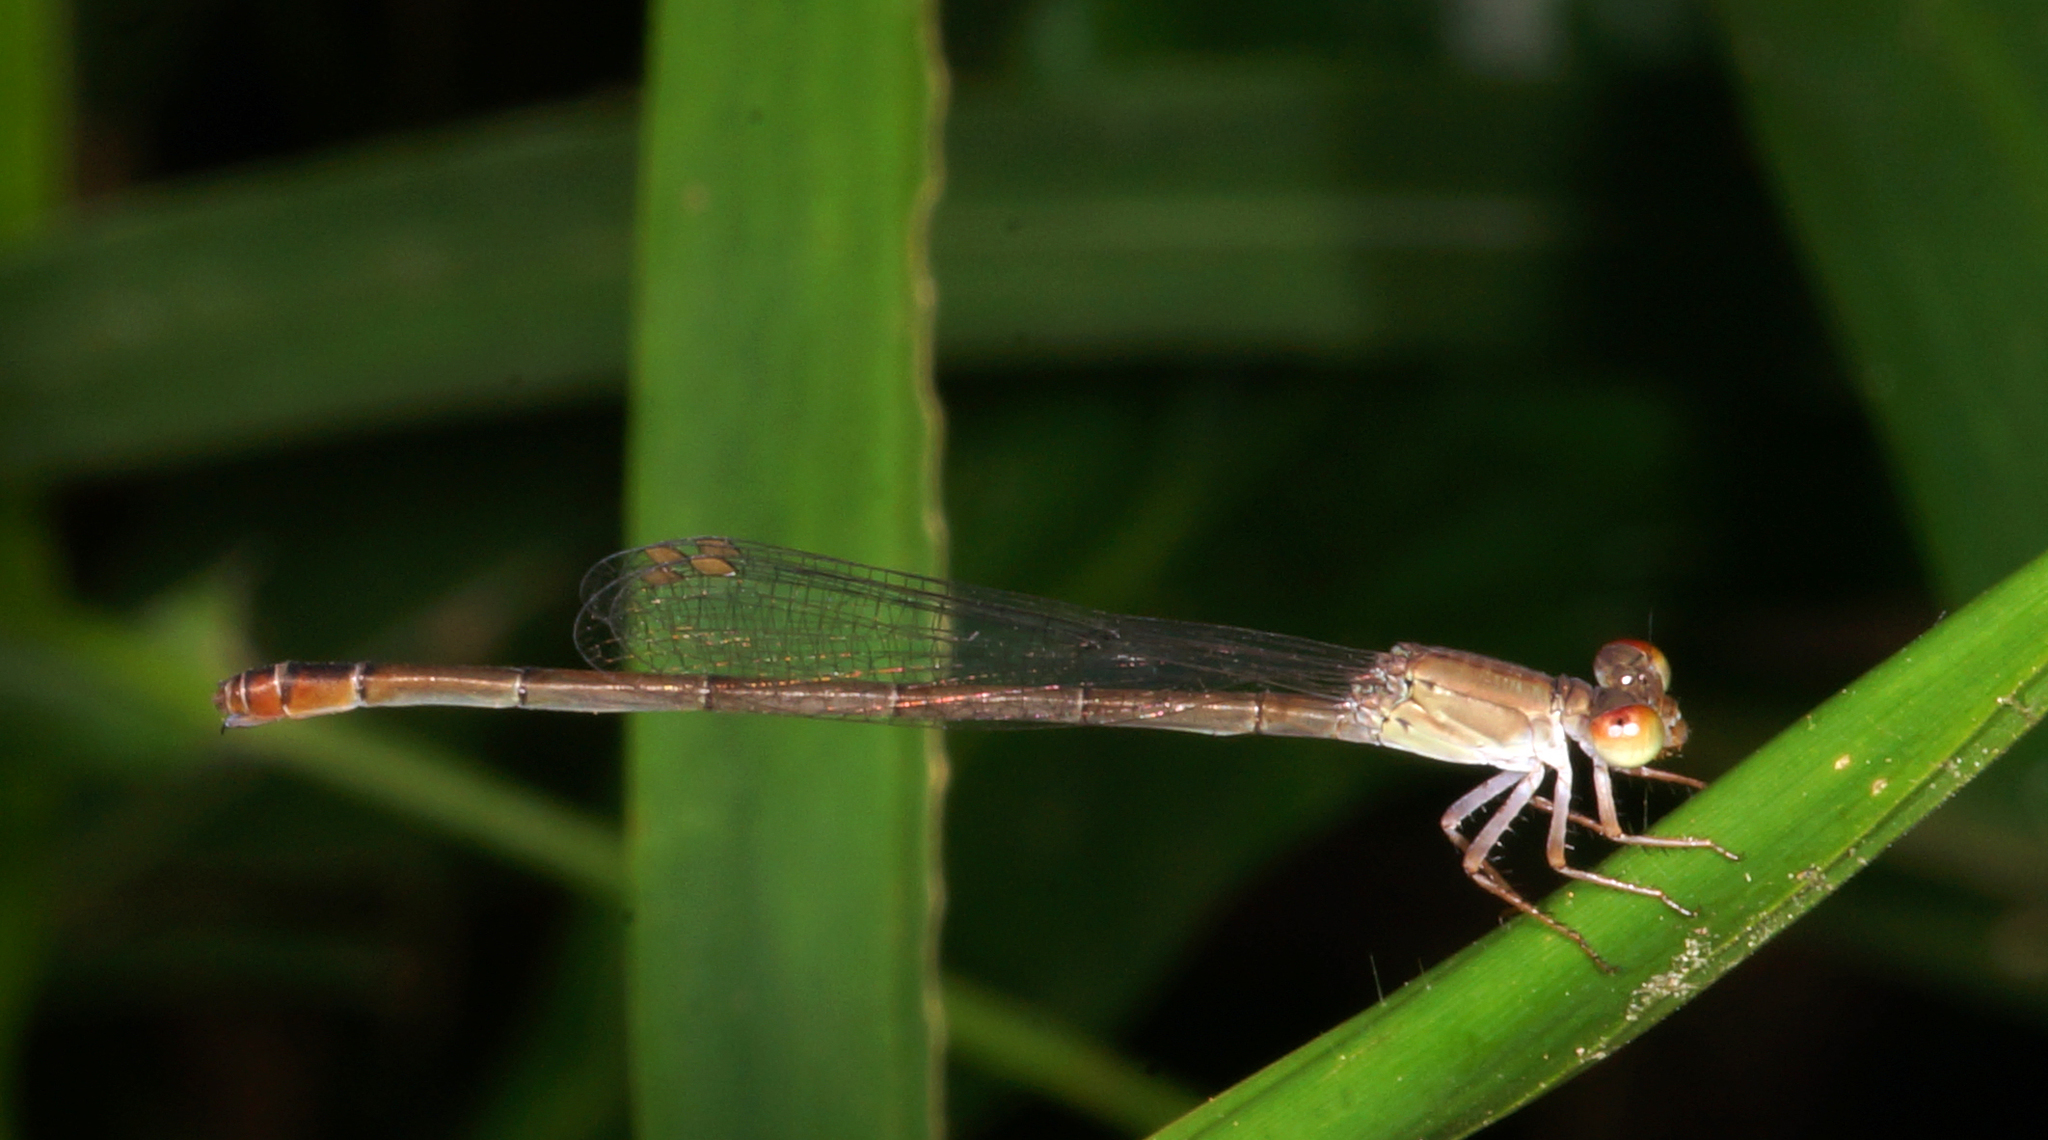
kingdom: Animalia
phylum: Arthropoda
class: Insecta
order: Odonata
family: Coenagrionidae
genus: Ceriagrion
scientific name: Ceriagrion praetermissum
